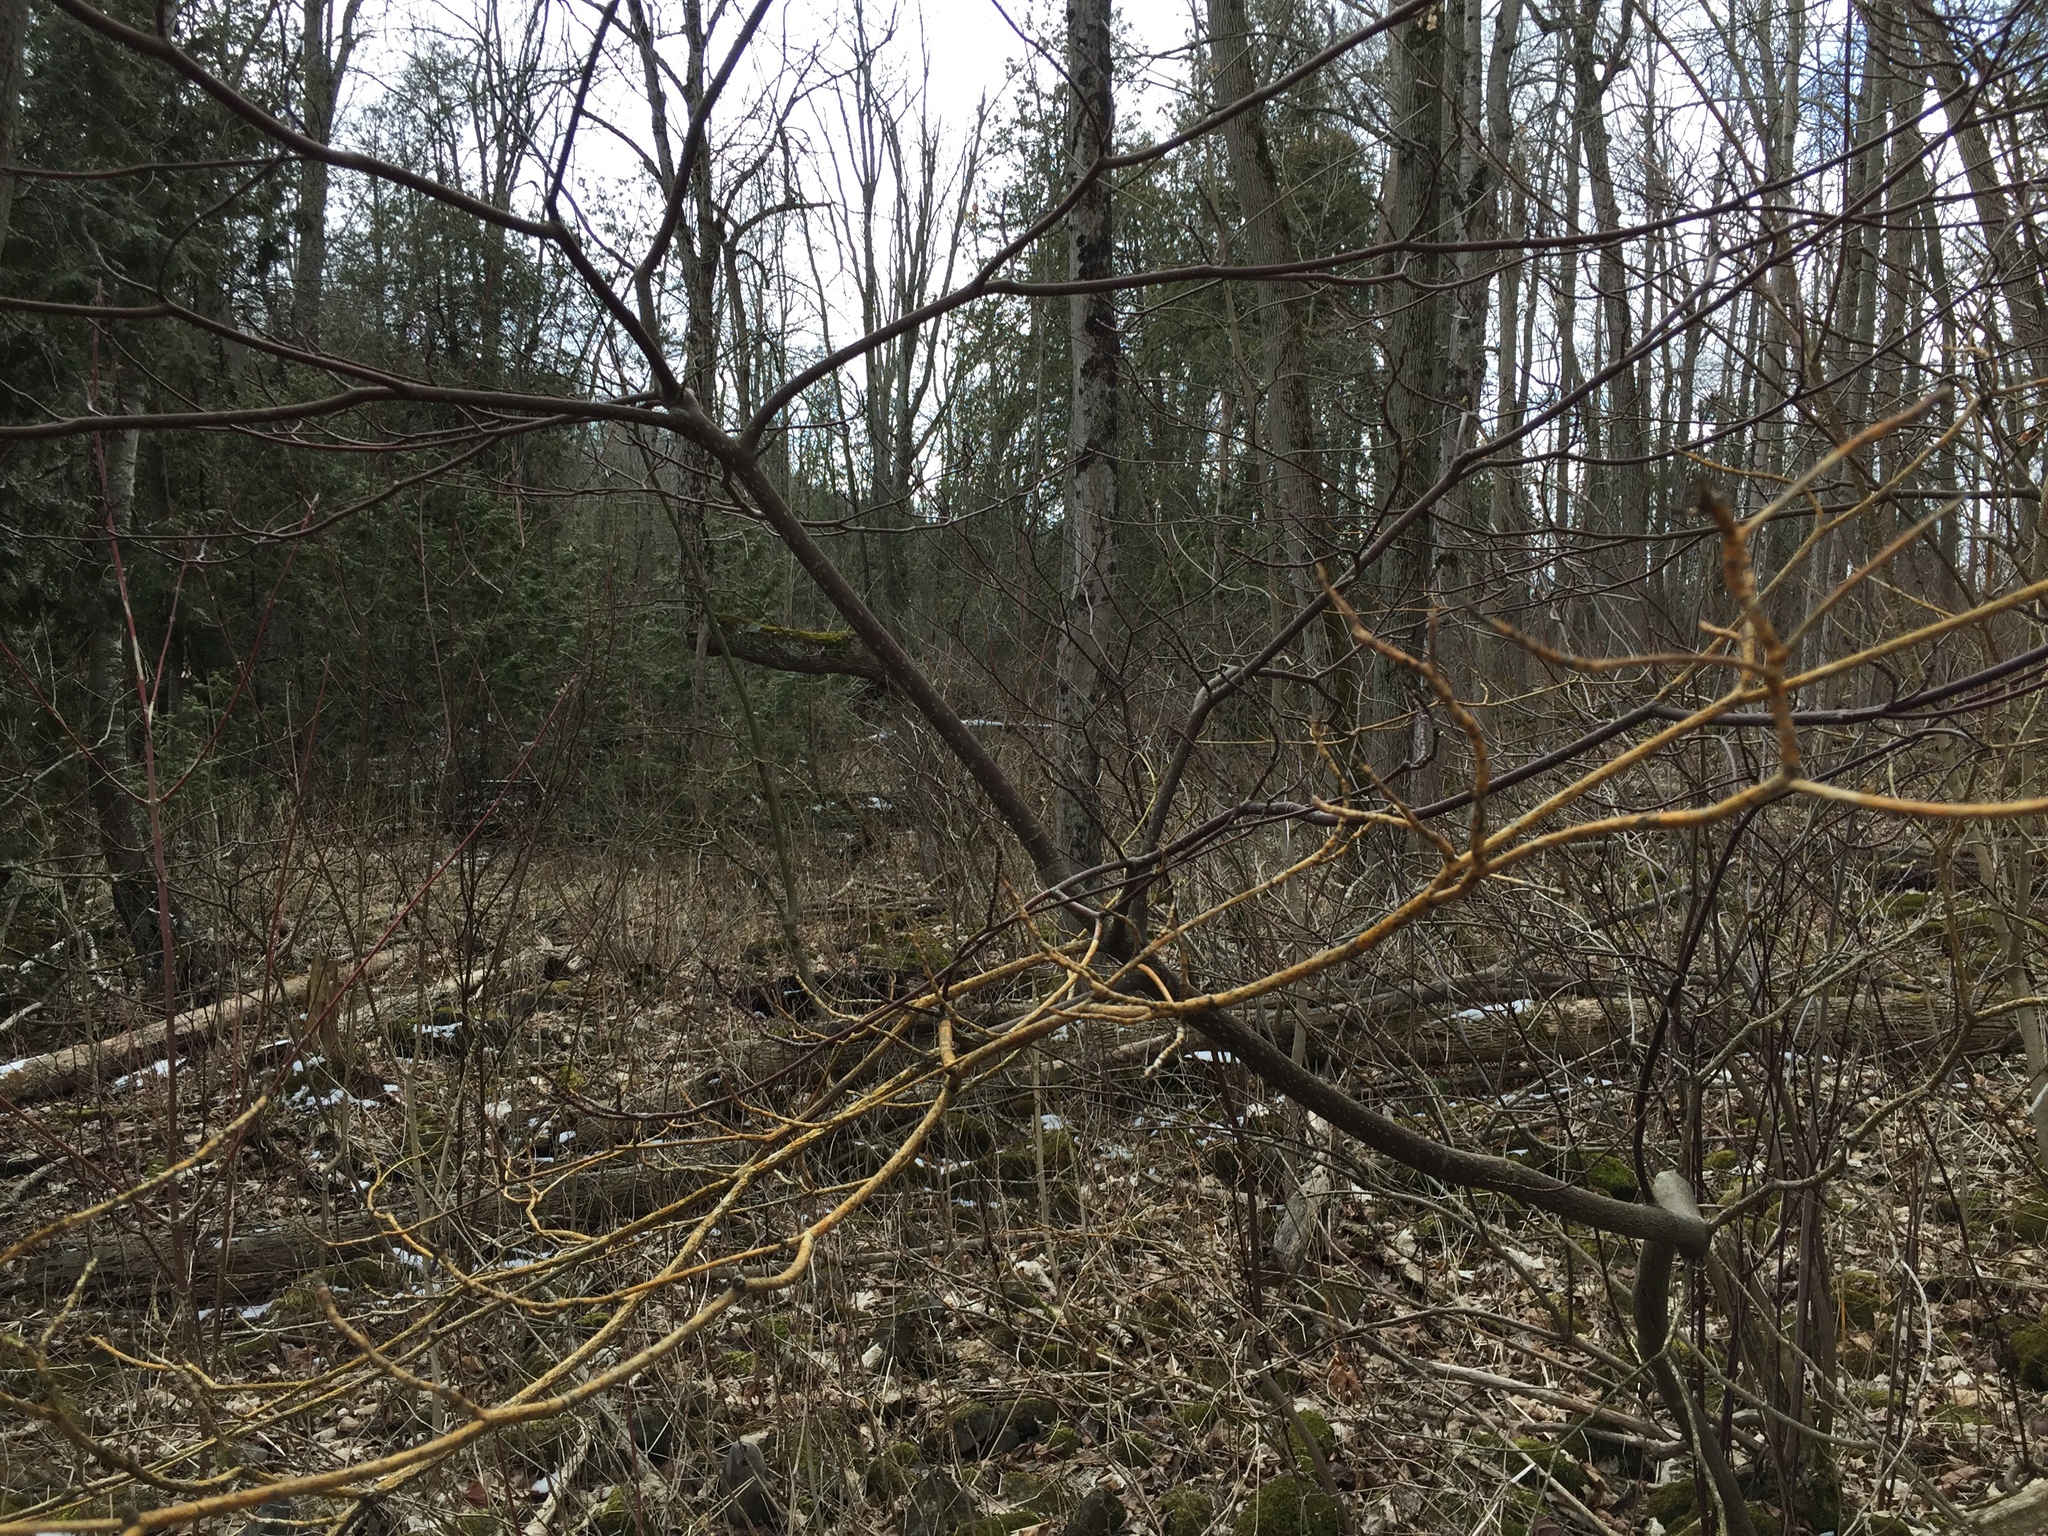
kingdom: Plantae
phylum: Tracheophyta
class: Magnoliopsida
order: Cornales
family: Cornaceae
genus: Cornus
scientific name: Cornus alternifolia
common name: Pagoda dogwood
